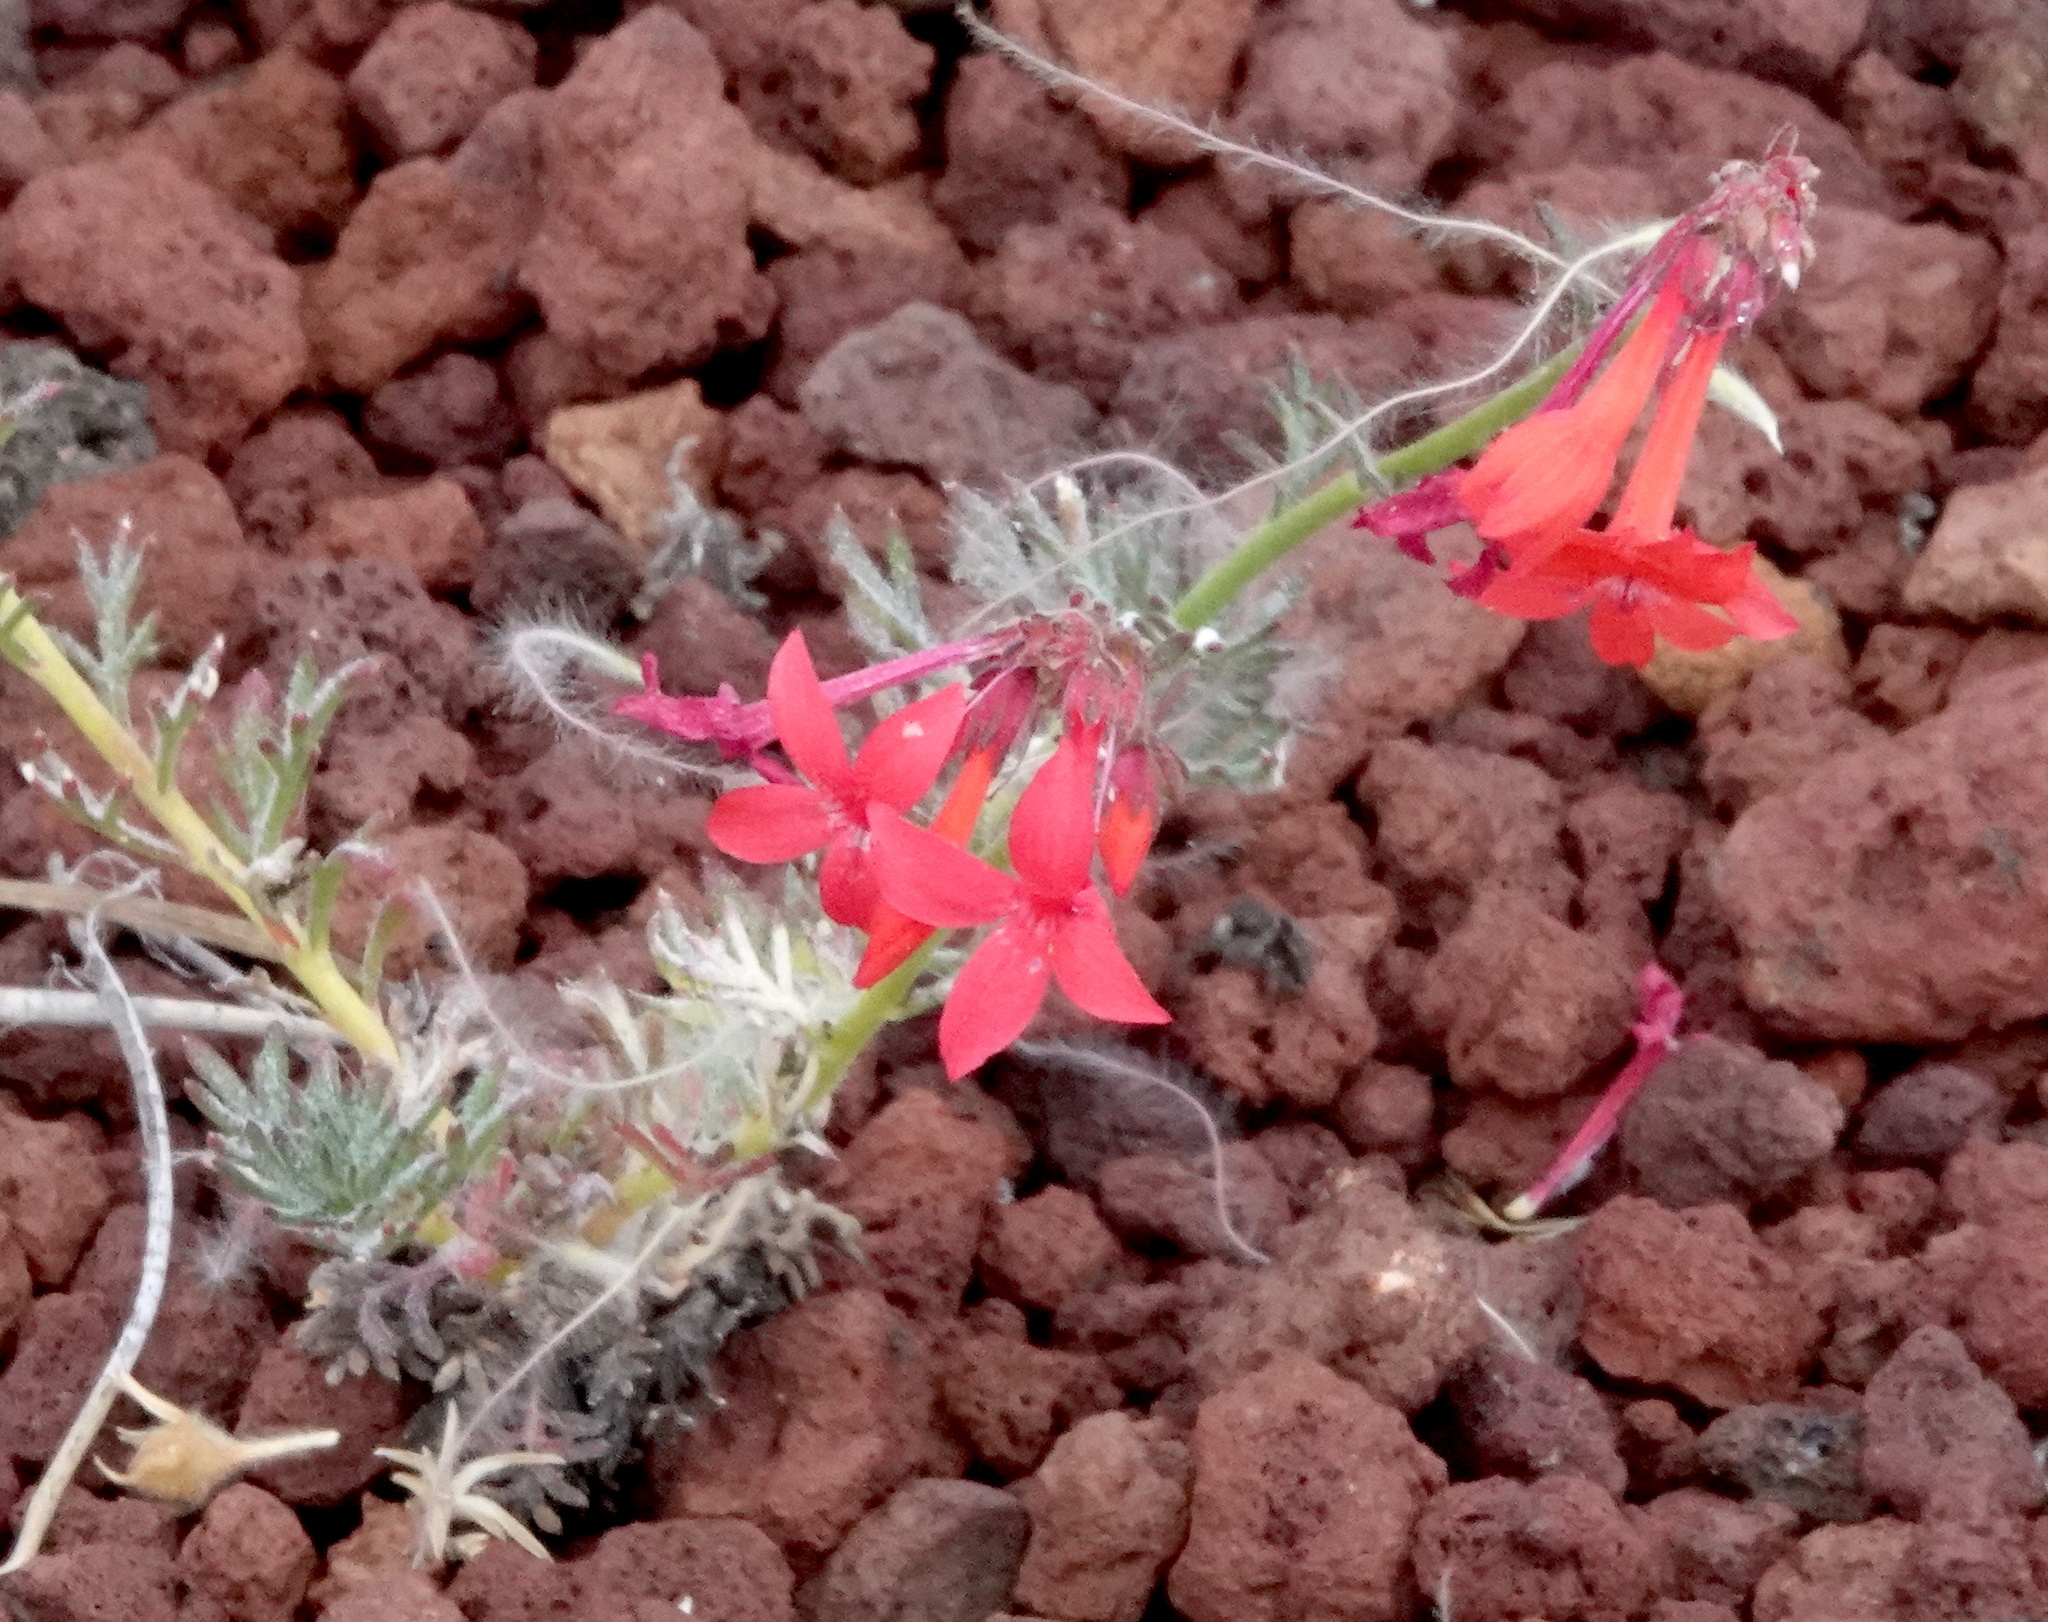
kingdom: Plantae
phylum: Tracheophyta
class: Magnoliopsida
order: Ericales
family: Polemoniaceae
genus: Ipomopsis
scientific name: Ipomopsis arizonica
